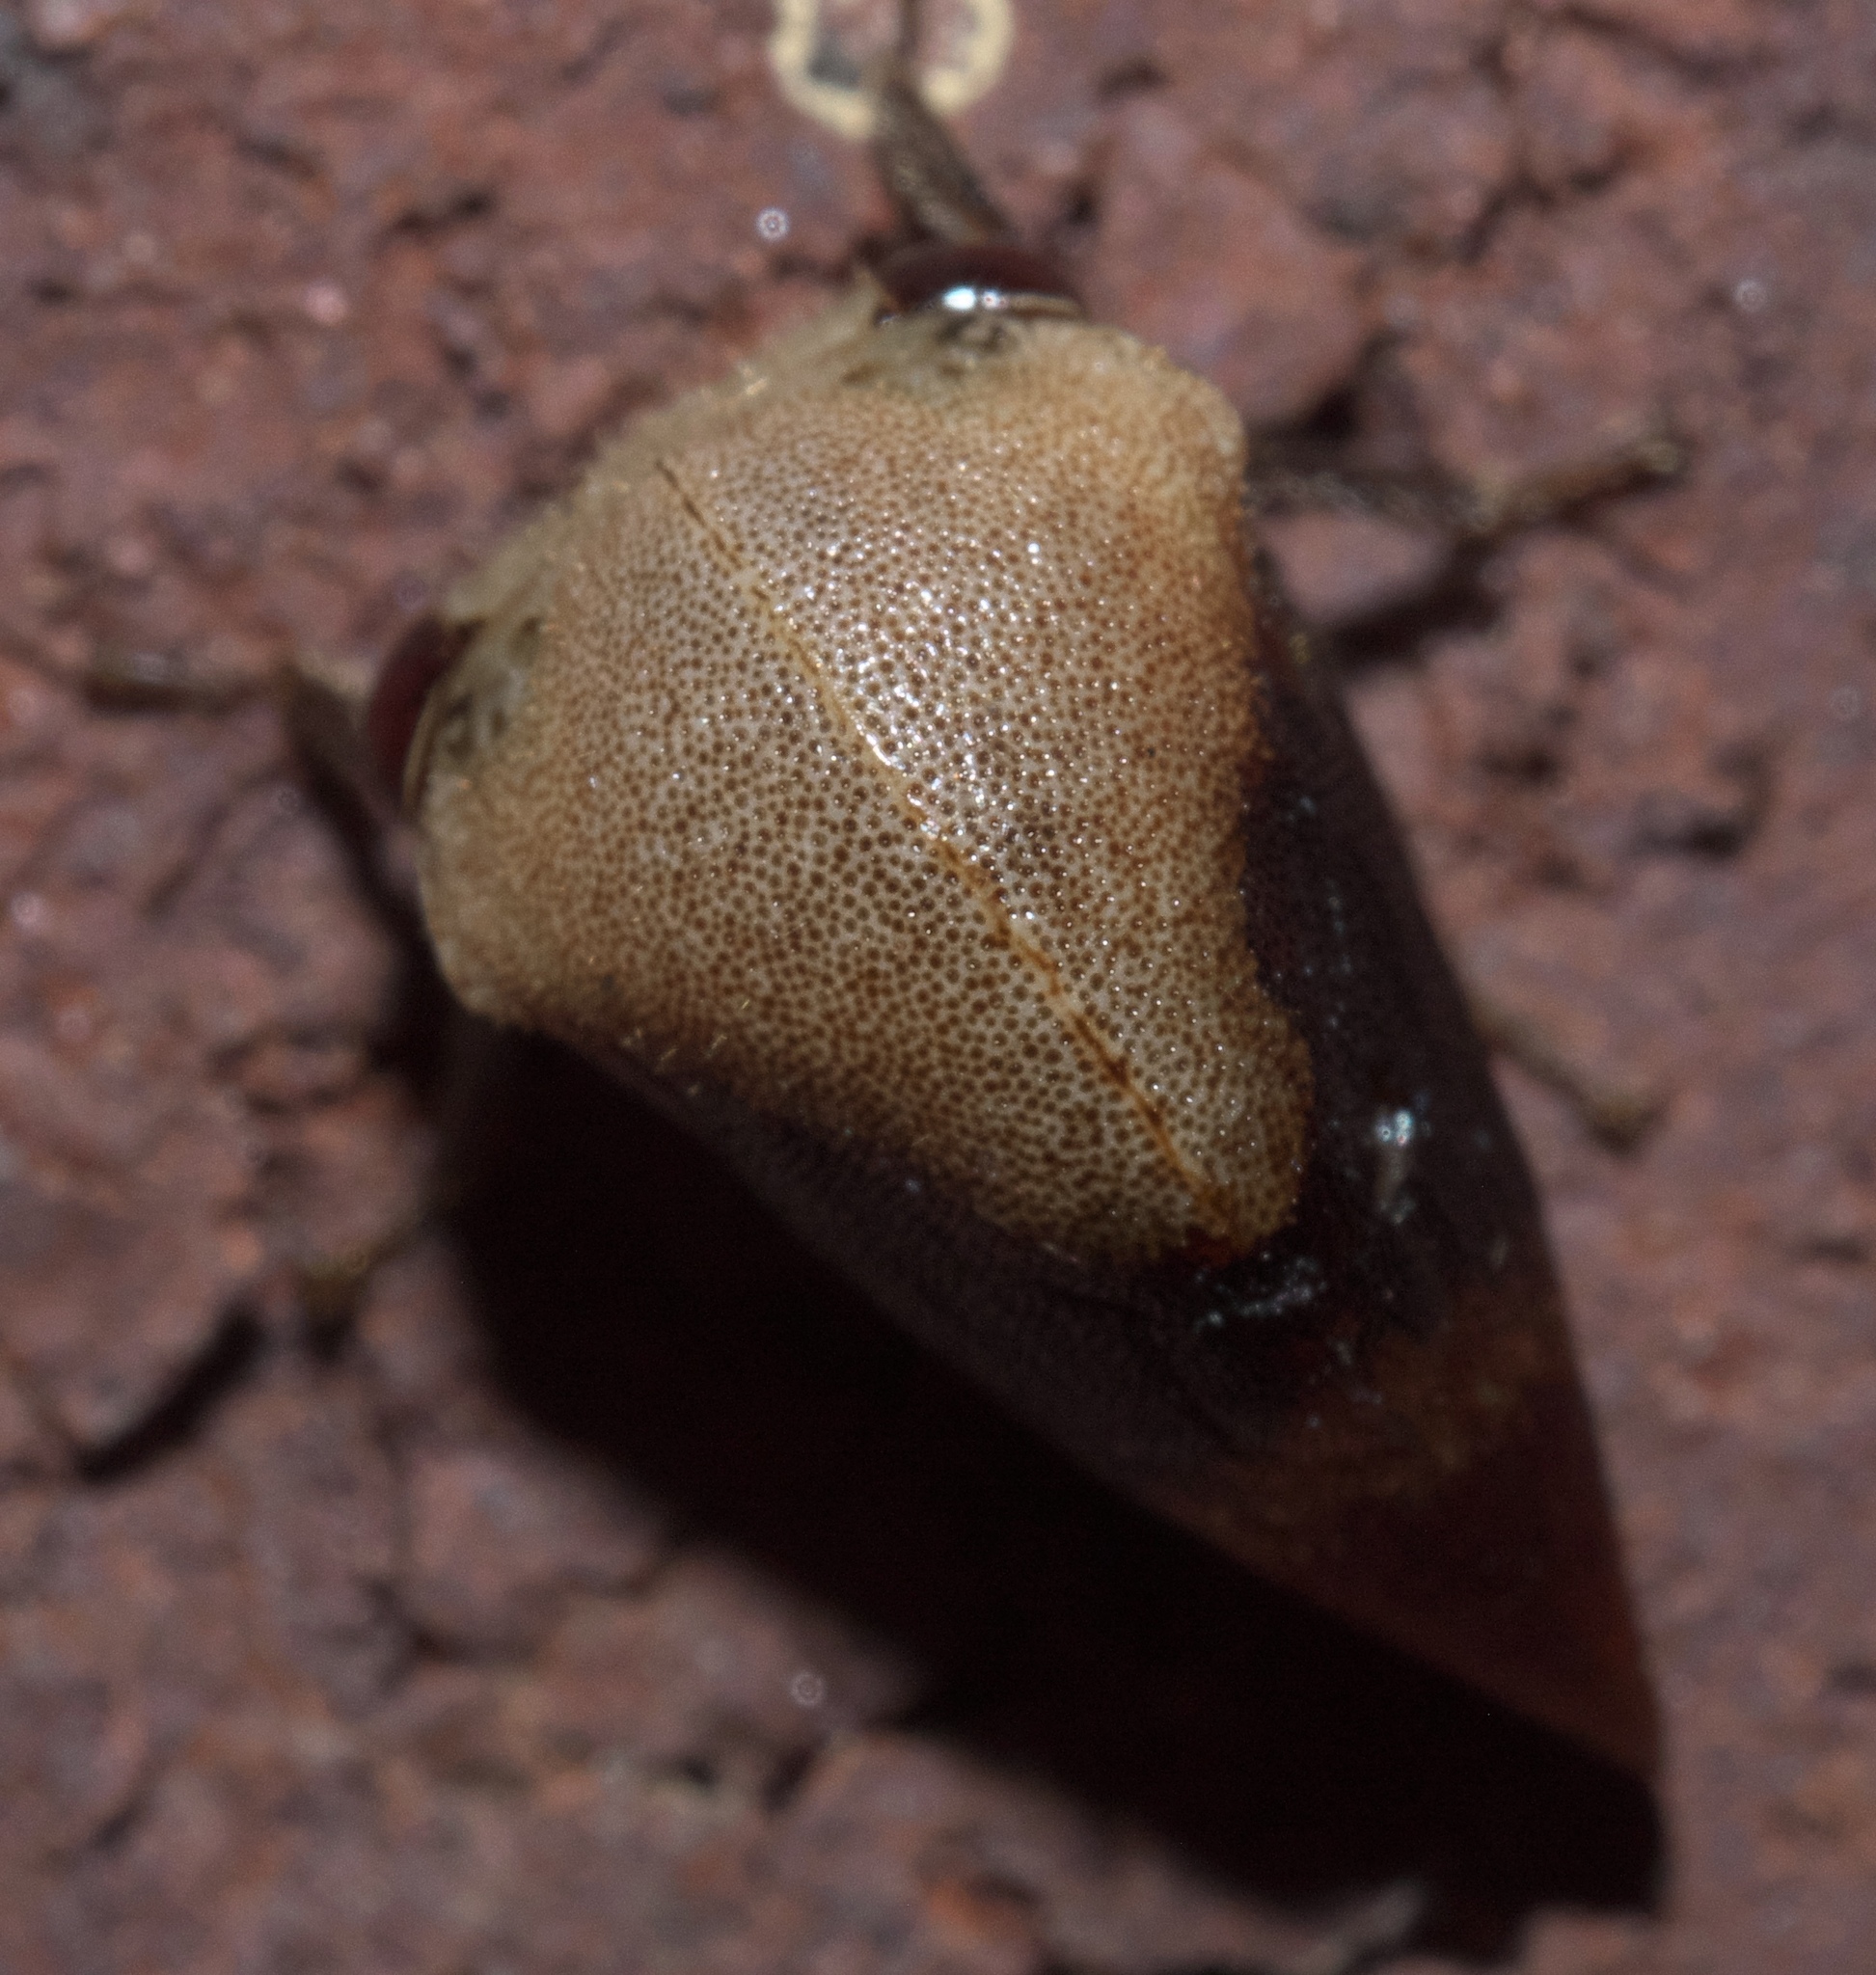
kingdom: Animalia
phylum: Arthropoda
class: Insecta
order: Hemiptera
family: Membracidae
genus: Carynota
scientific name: Carynota mera
